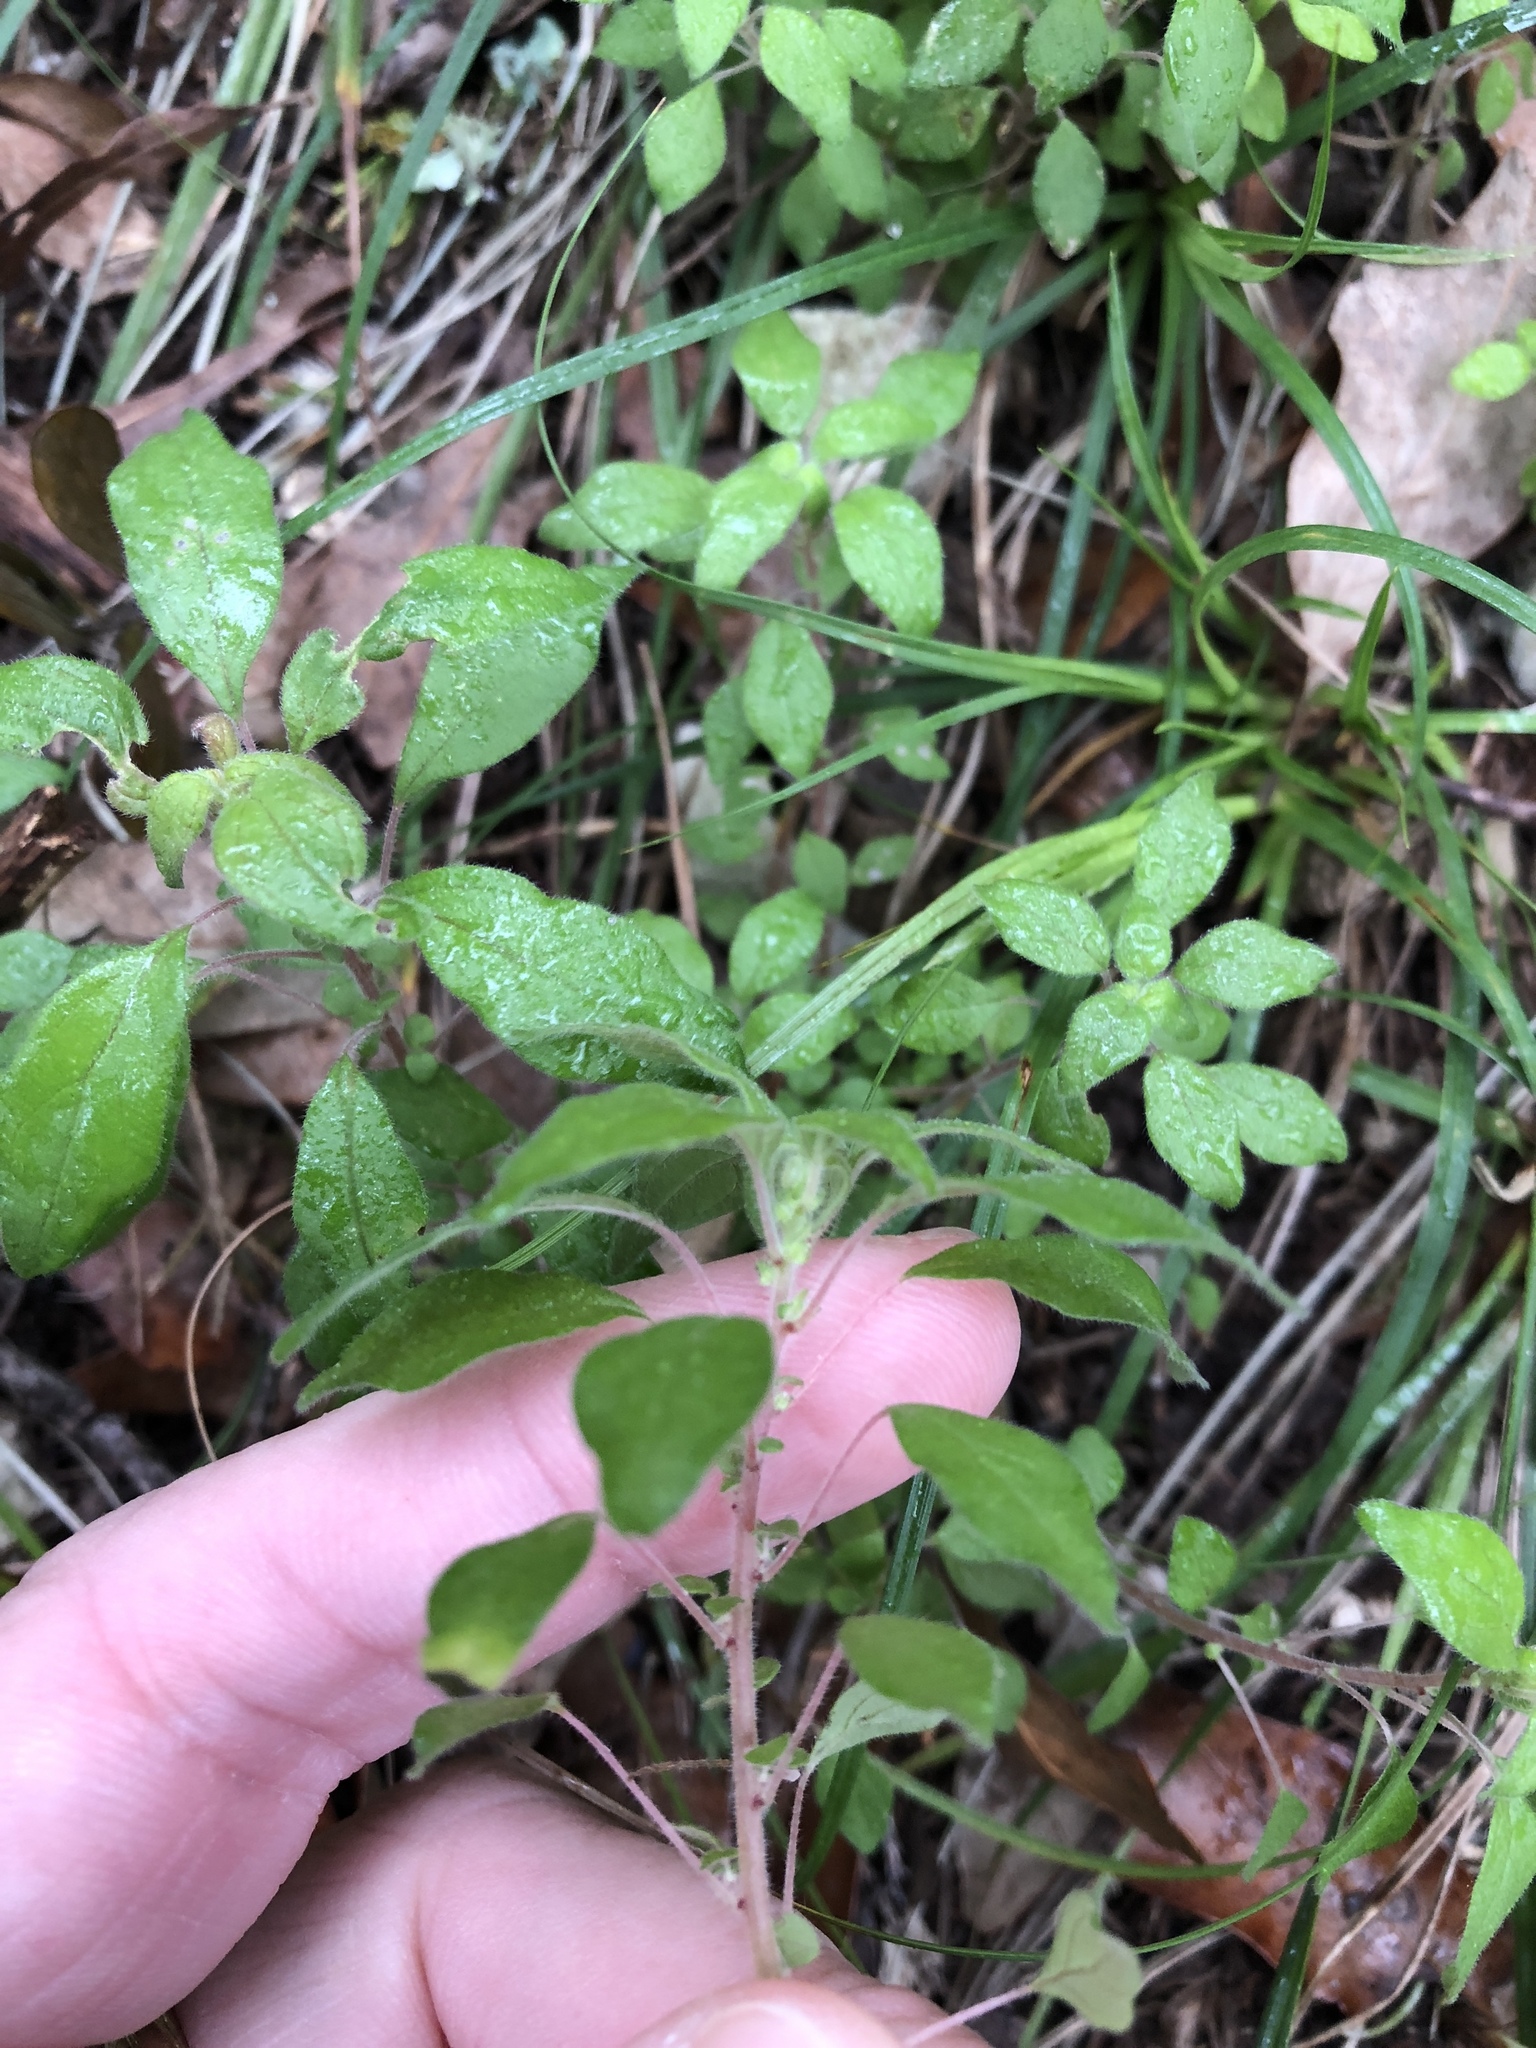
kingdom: Plantae
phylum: Tracheophyta
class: Magnoliopsida
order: Rosales
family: Urticaceae
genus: Parietaria
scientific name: Parietaria pensylvanica
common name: Pennsylvania pellitory
